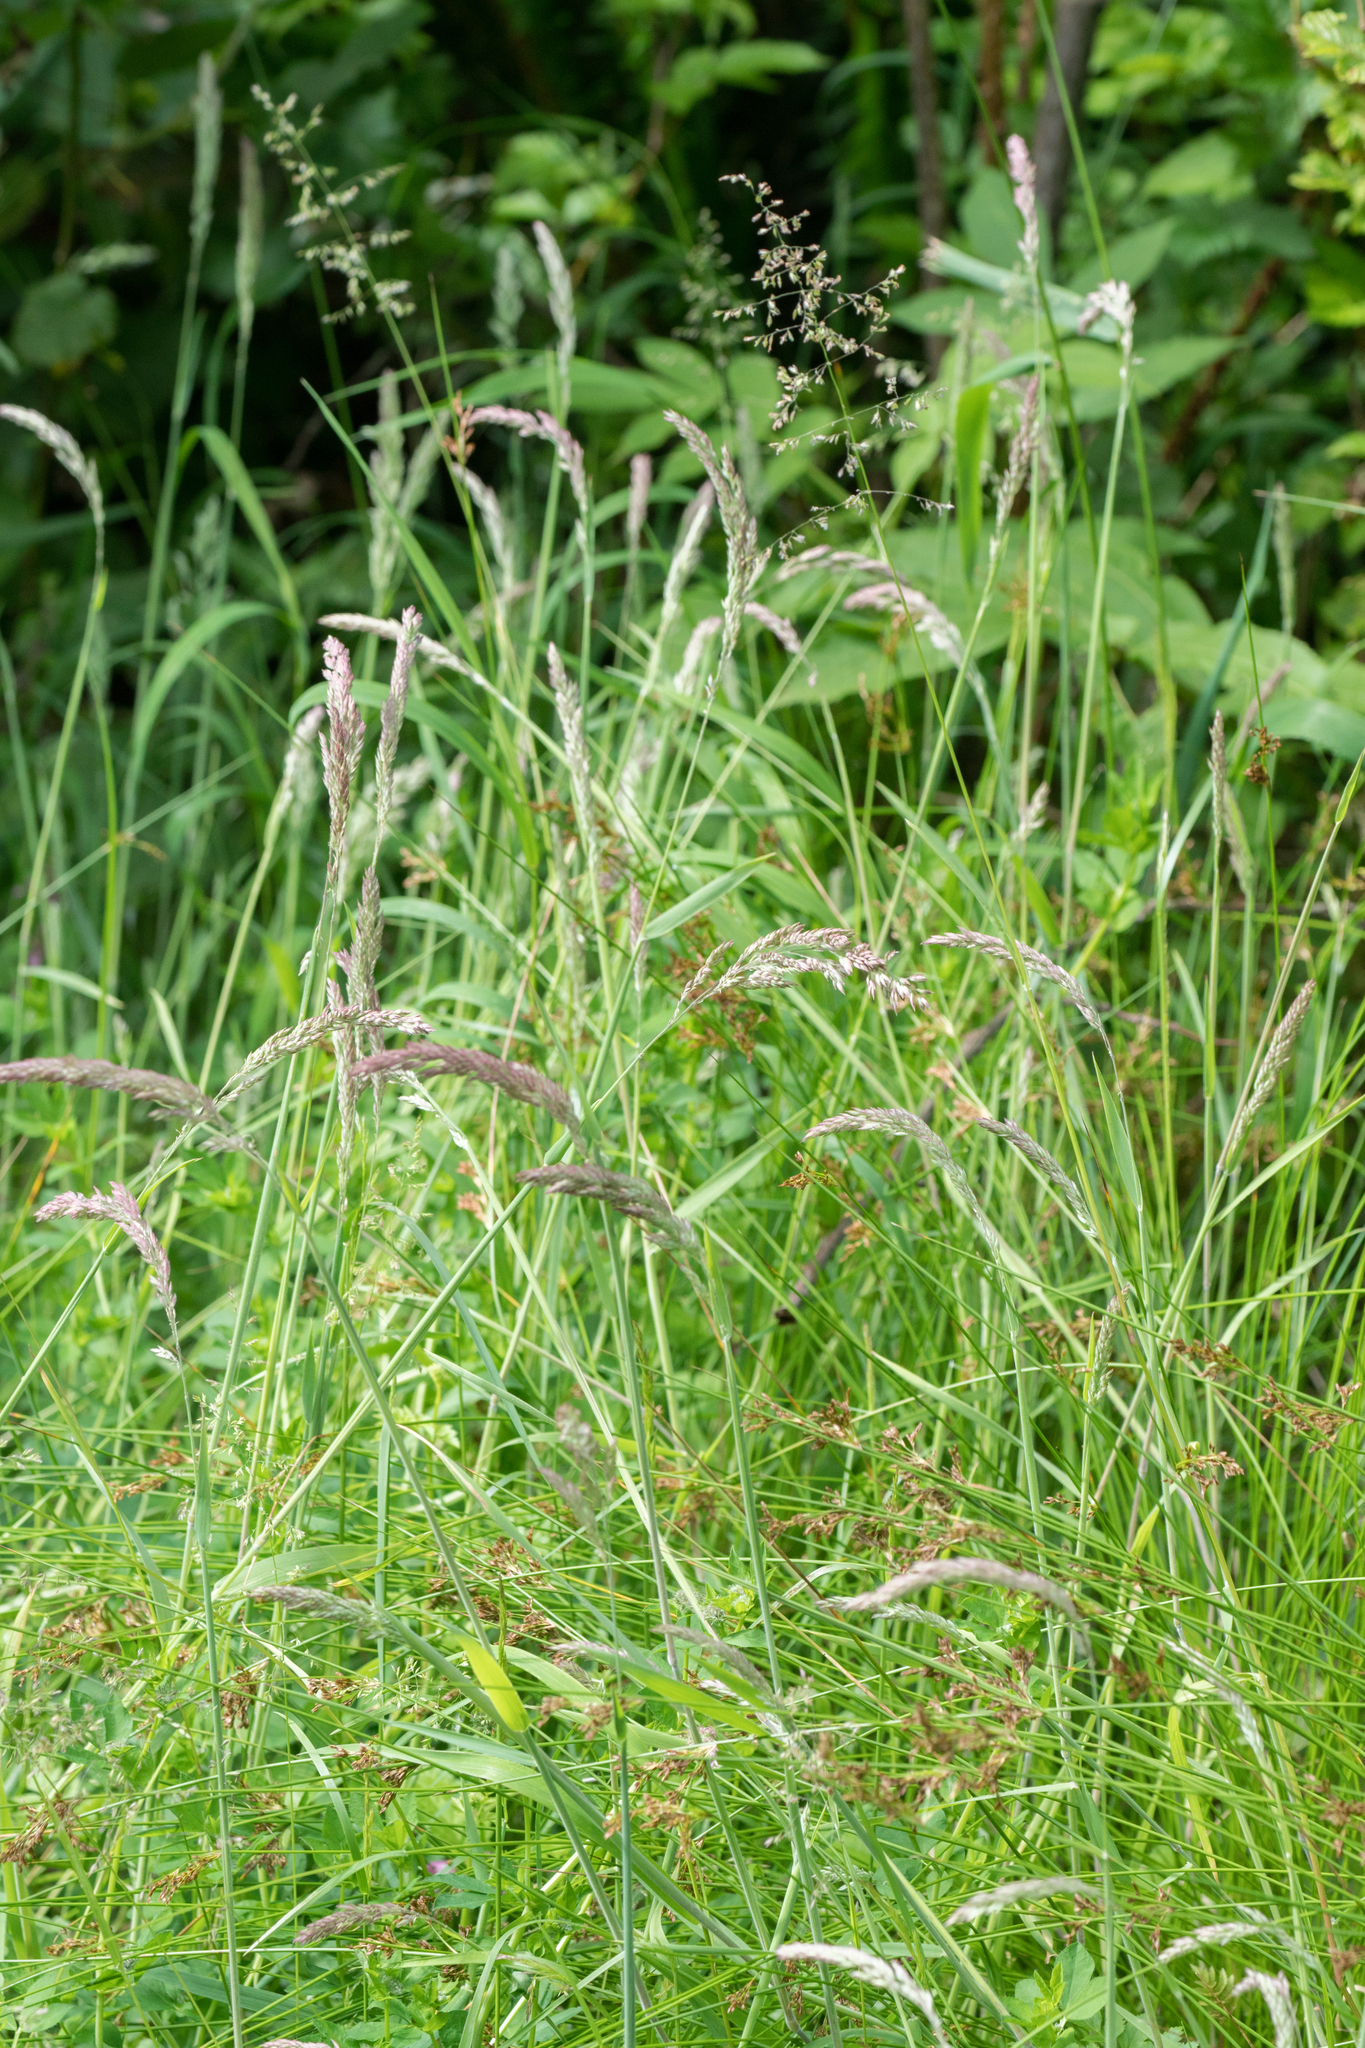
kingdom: Plantae
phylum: Tracheophyta
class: Liliopsida
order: Poales
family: Poaceae
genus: Holcus
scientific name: Holcus lanatus
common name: Yorkshire-fog
